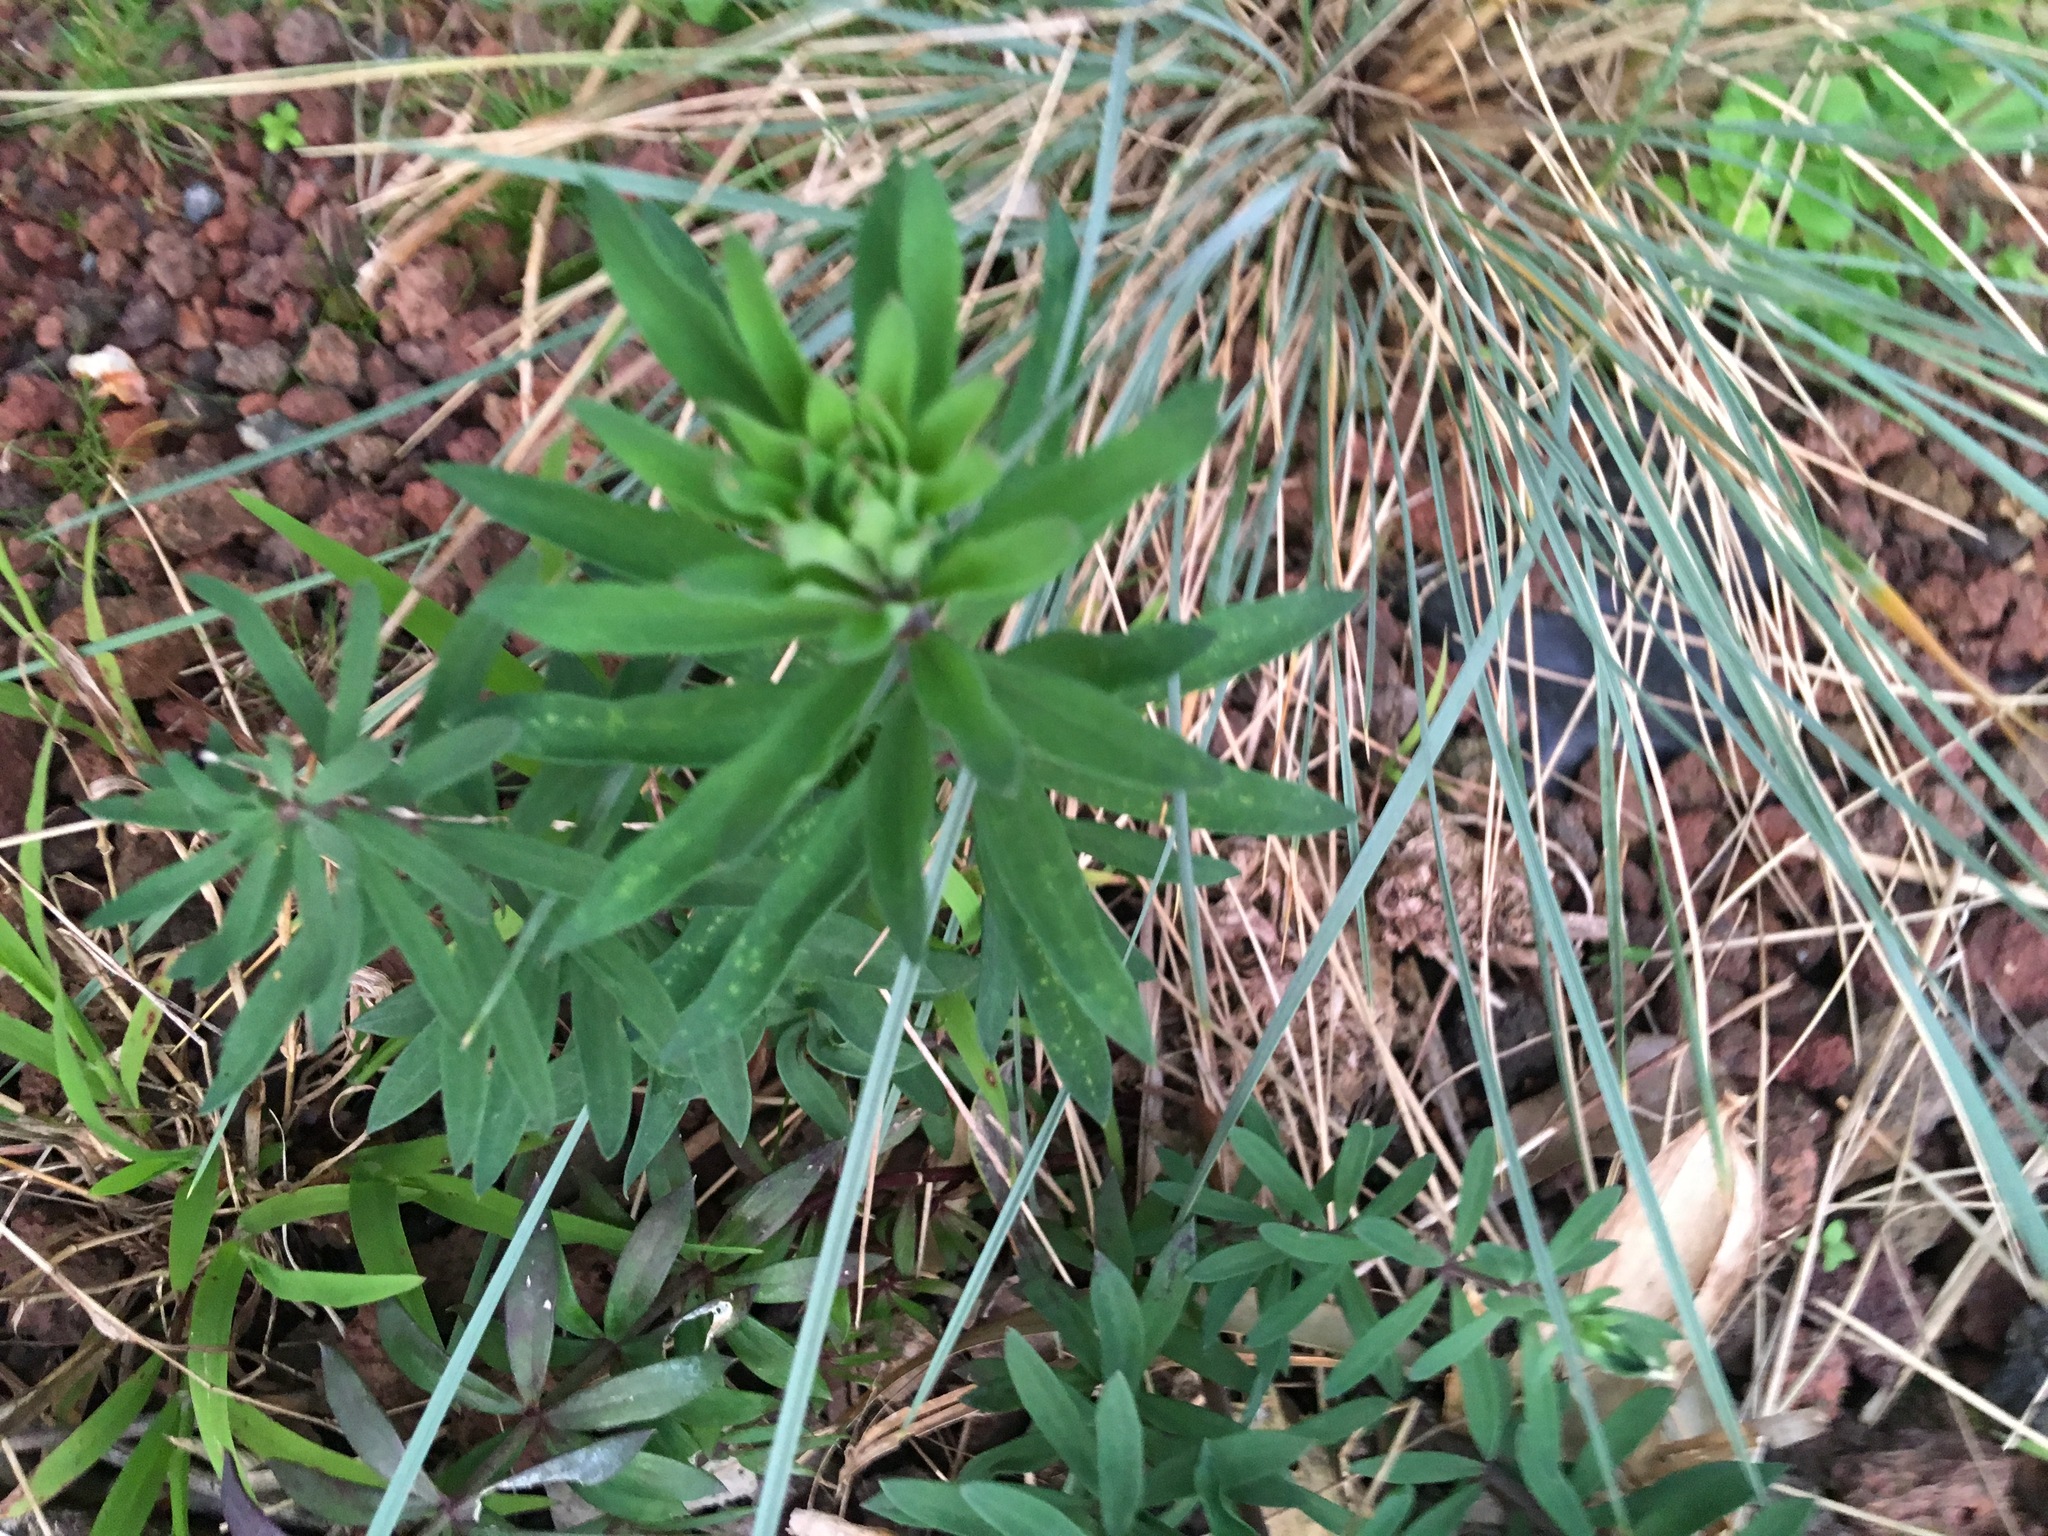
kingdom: Plantae
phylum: Tracheophyta
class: Magnoliopsida
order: Lamiales
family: Plantaginaceae
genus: Linaria
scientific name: Linaria purpurea
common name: Purple toadflax
